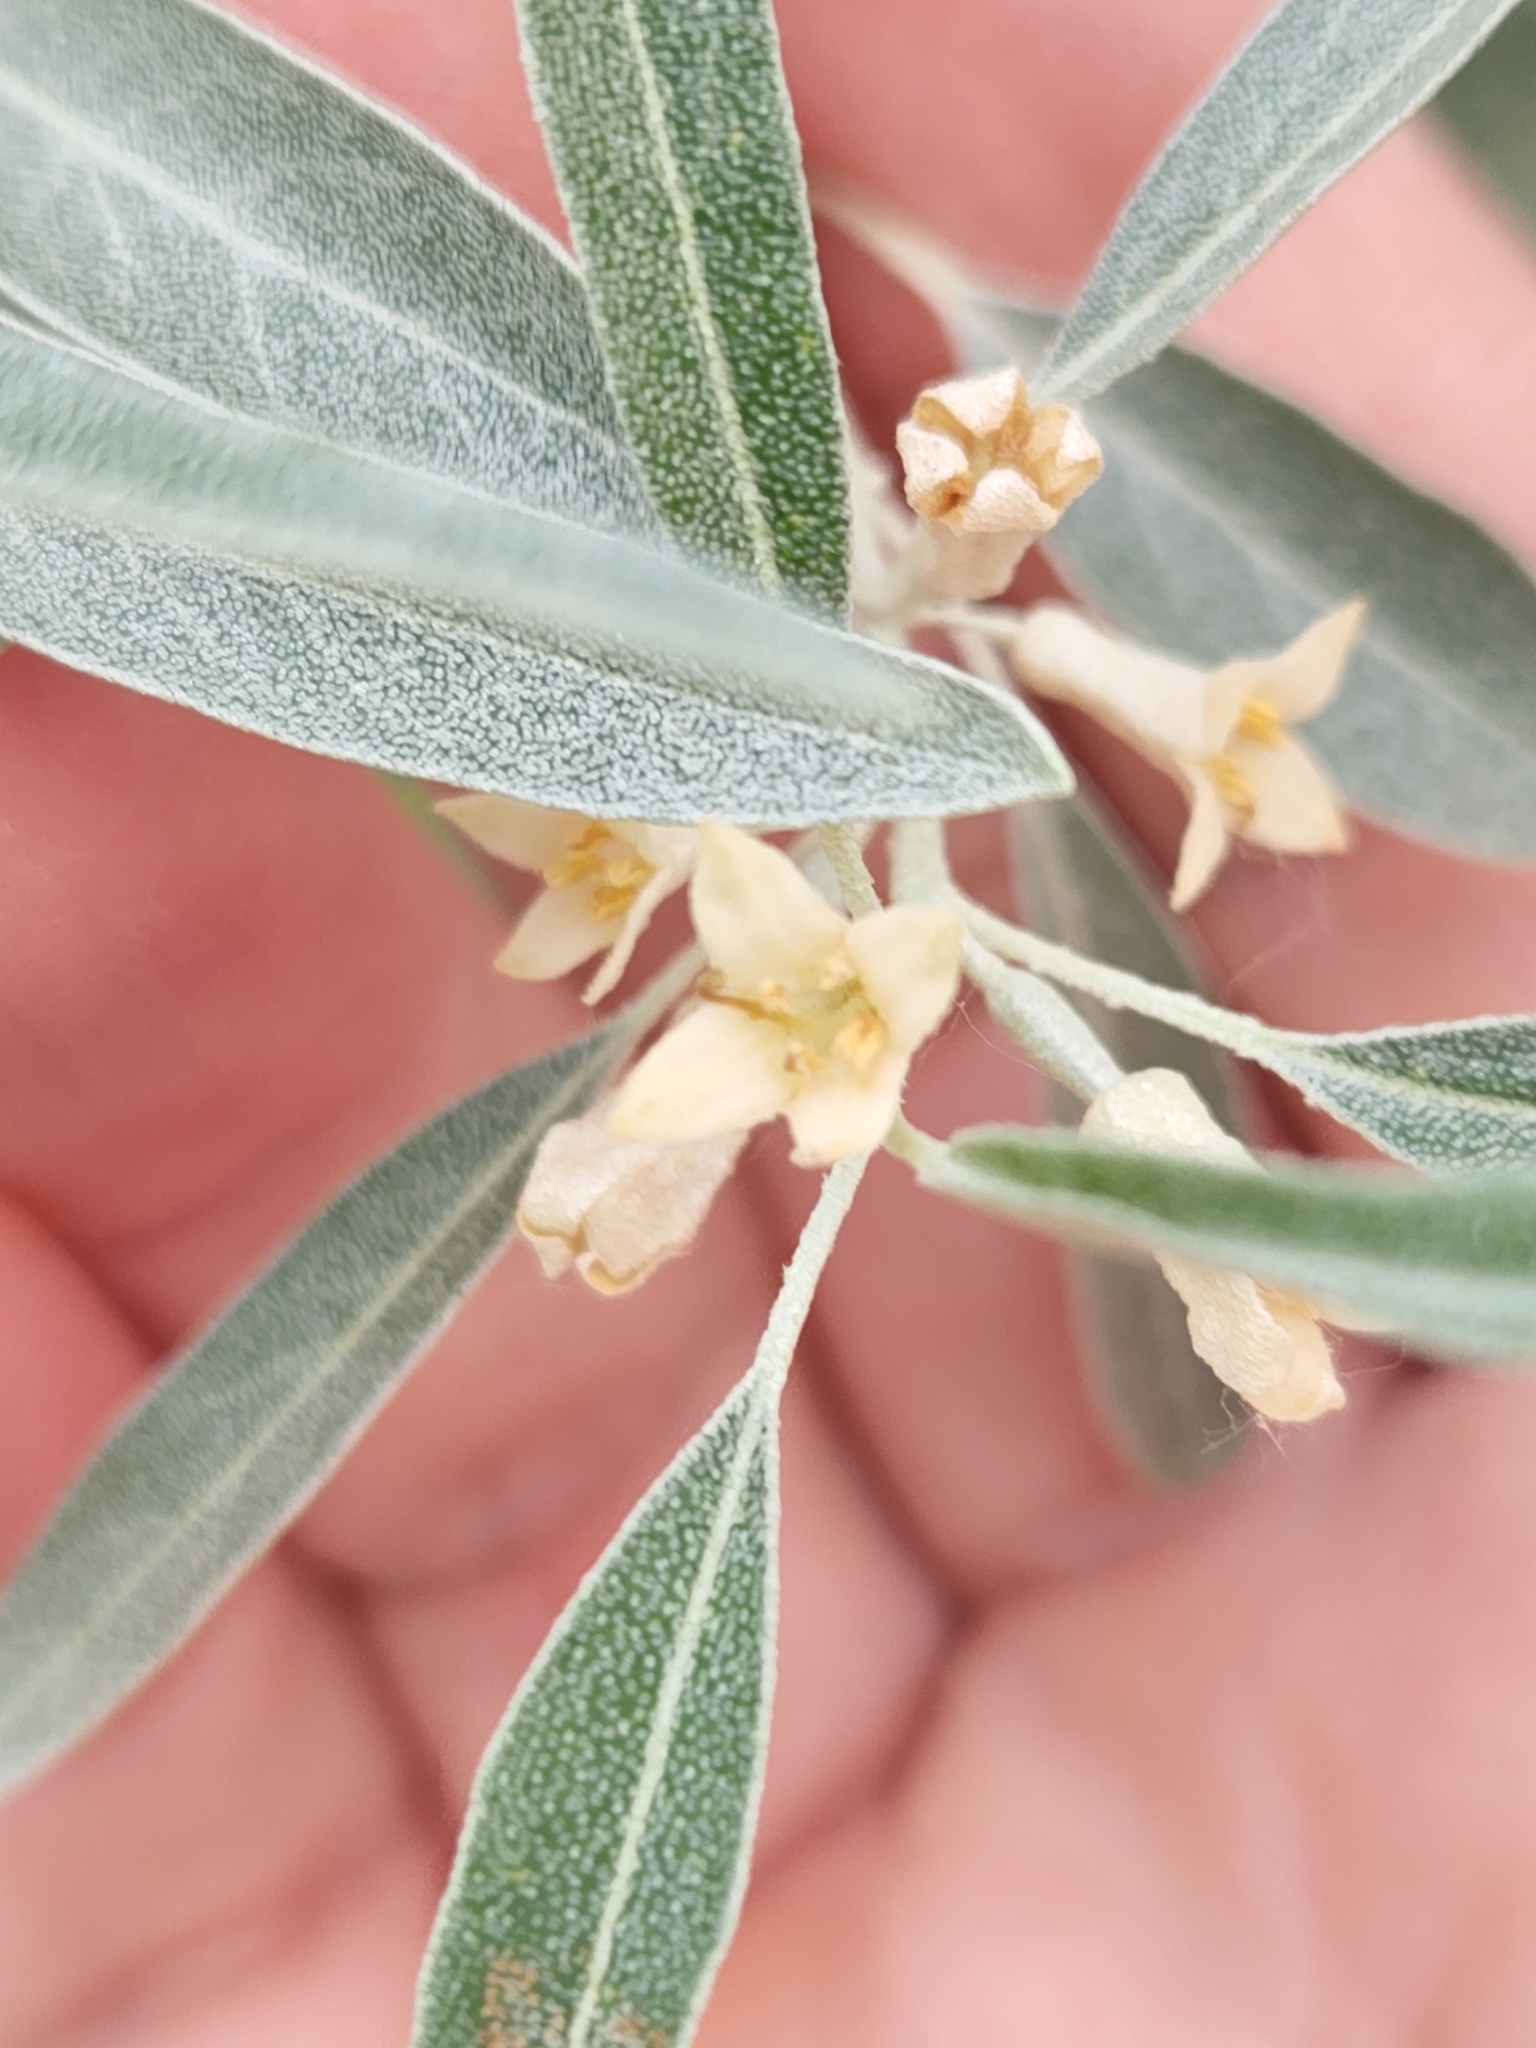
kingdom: Plantae
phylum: Tracheophyta
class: Magnoliopsida
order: Rosales
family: Elaeagnaceae
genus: Elaeagnus
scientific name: Elaeagnus angustifolia
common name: Russian olive
